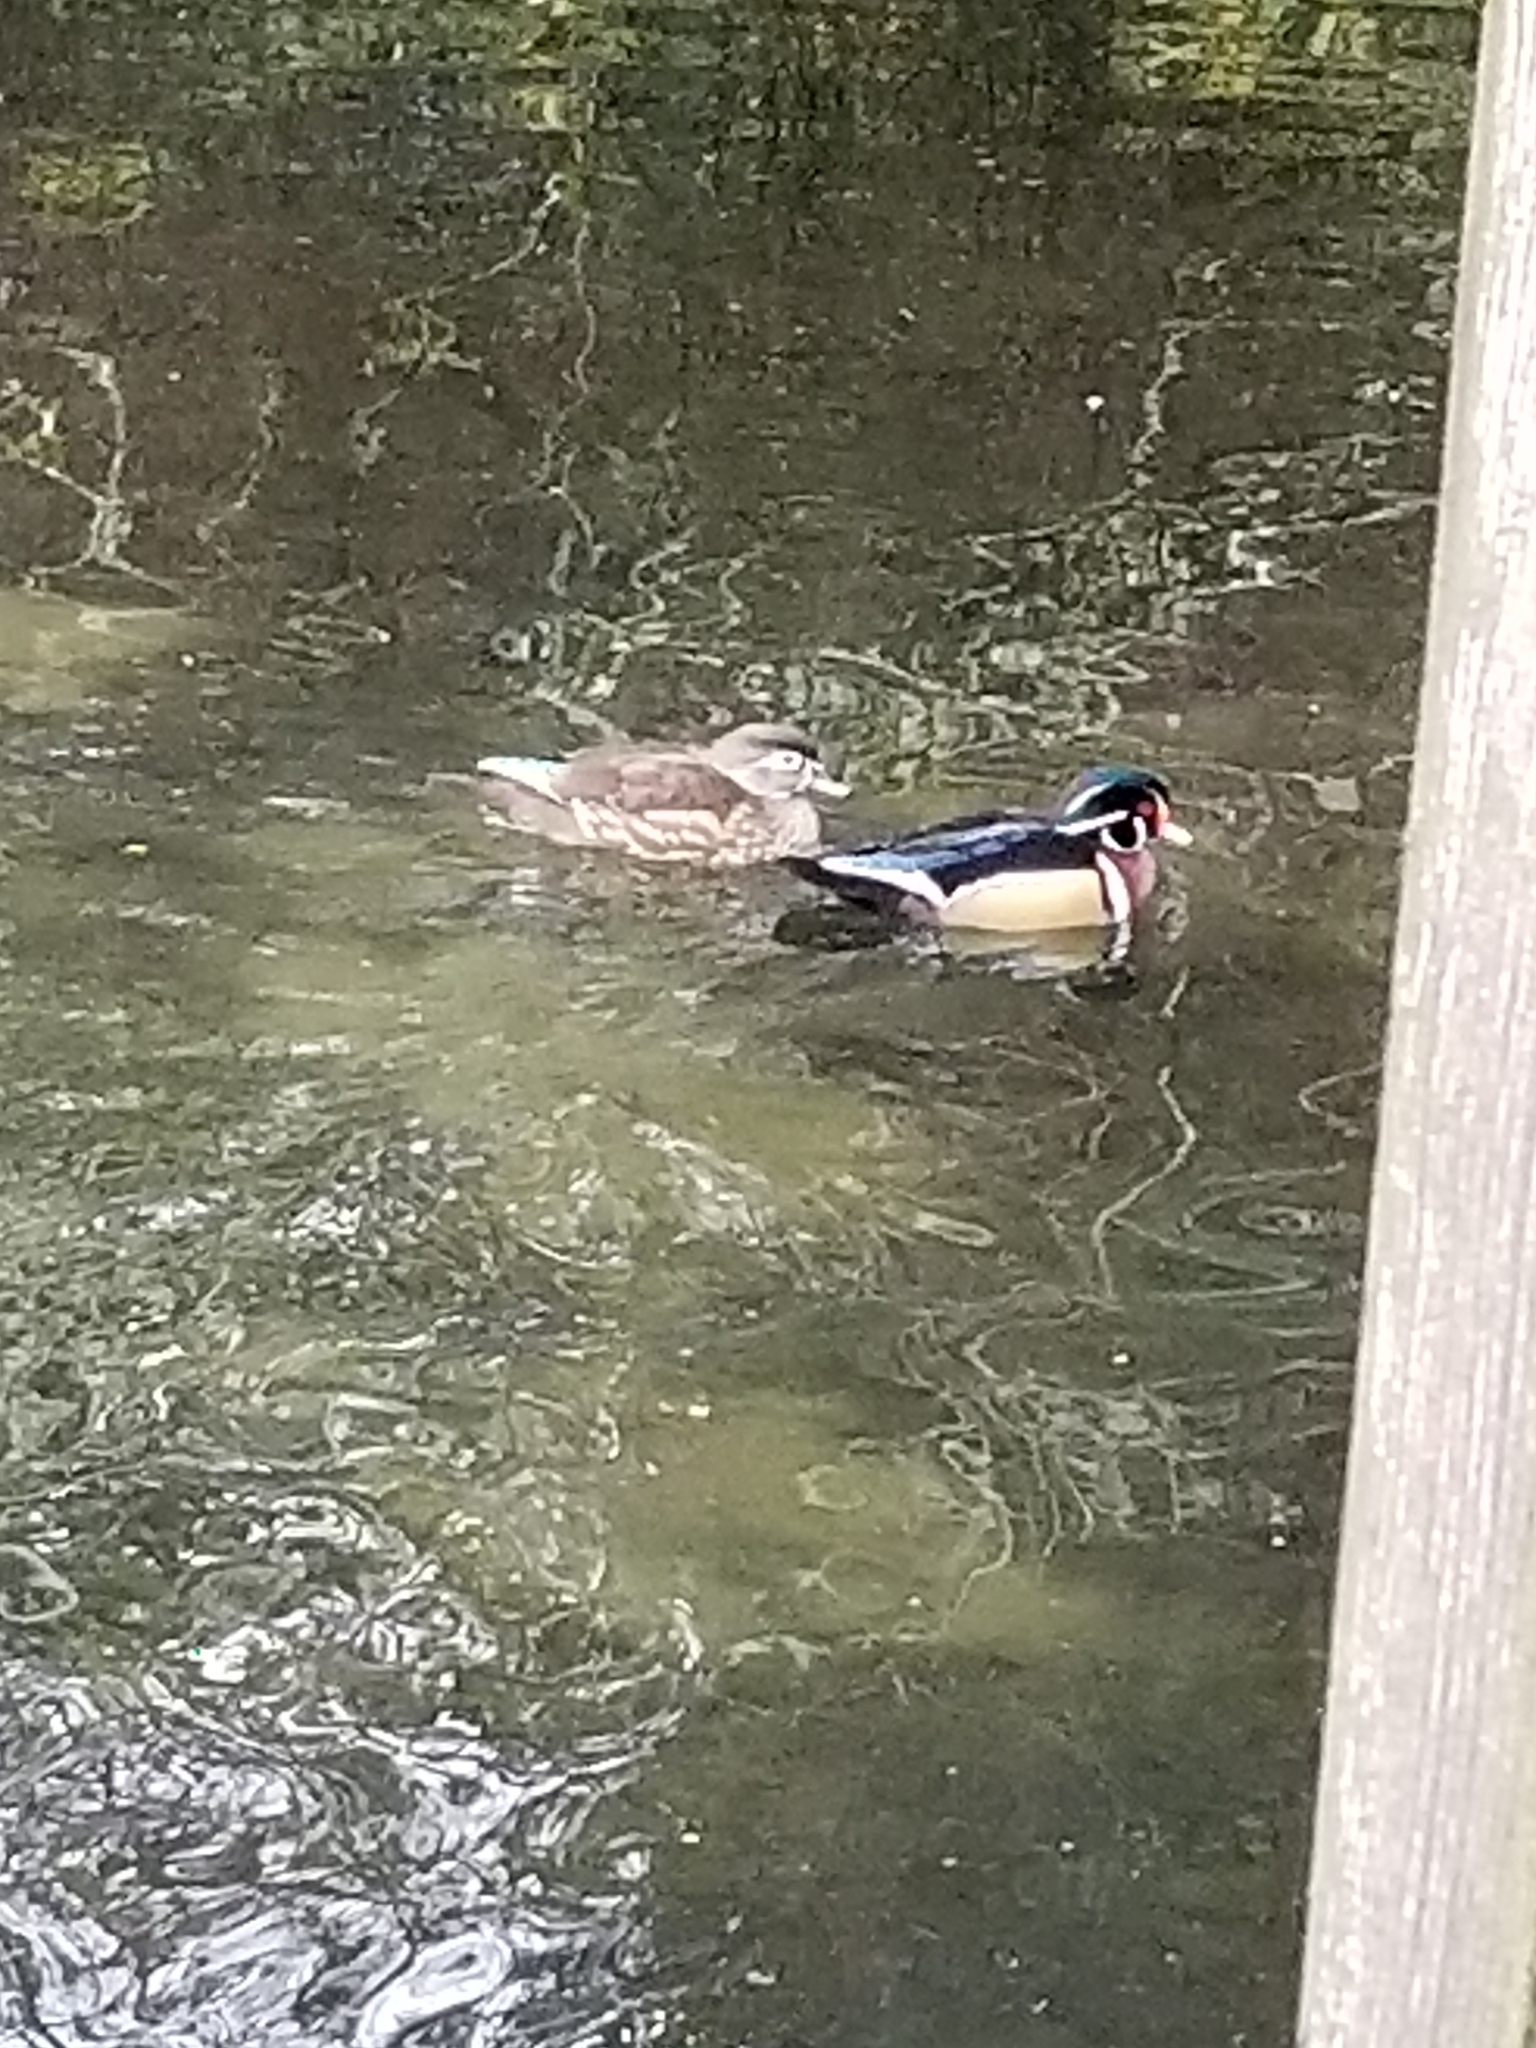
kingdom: Animalia
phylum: Chordata
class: Aves
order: Anseriformes
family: Anatidae
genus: Aix
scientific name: Aix sponsa
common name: Wood duck
